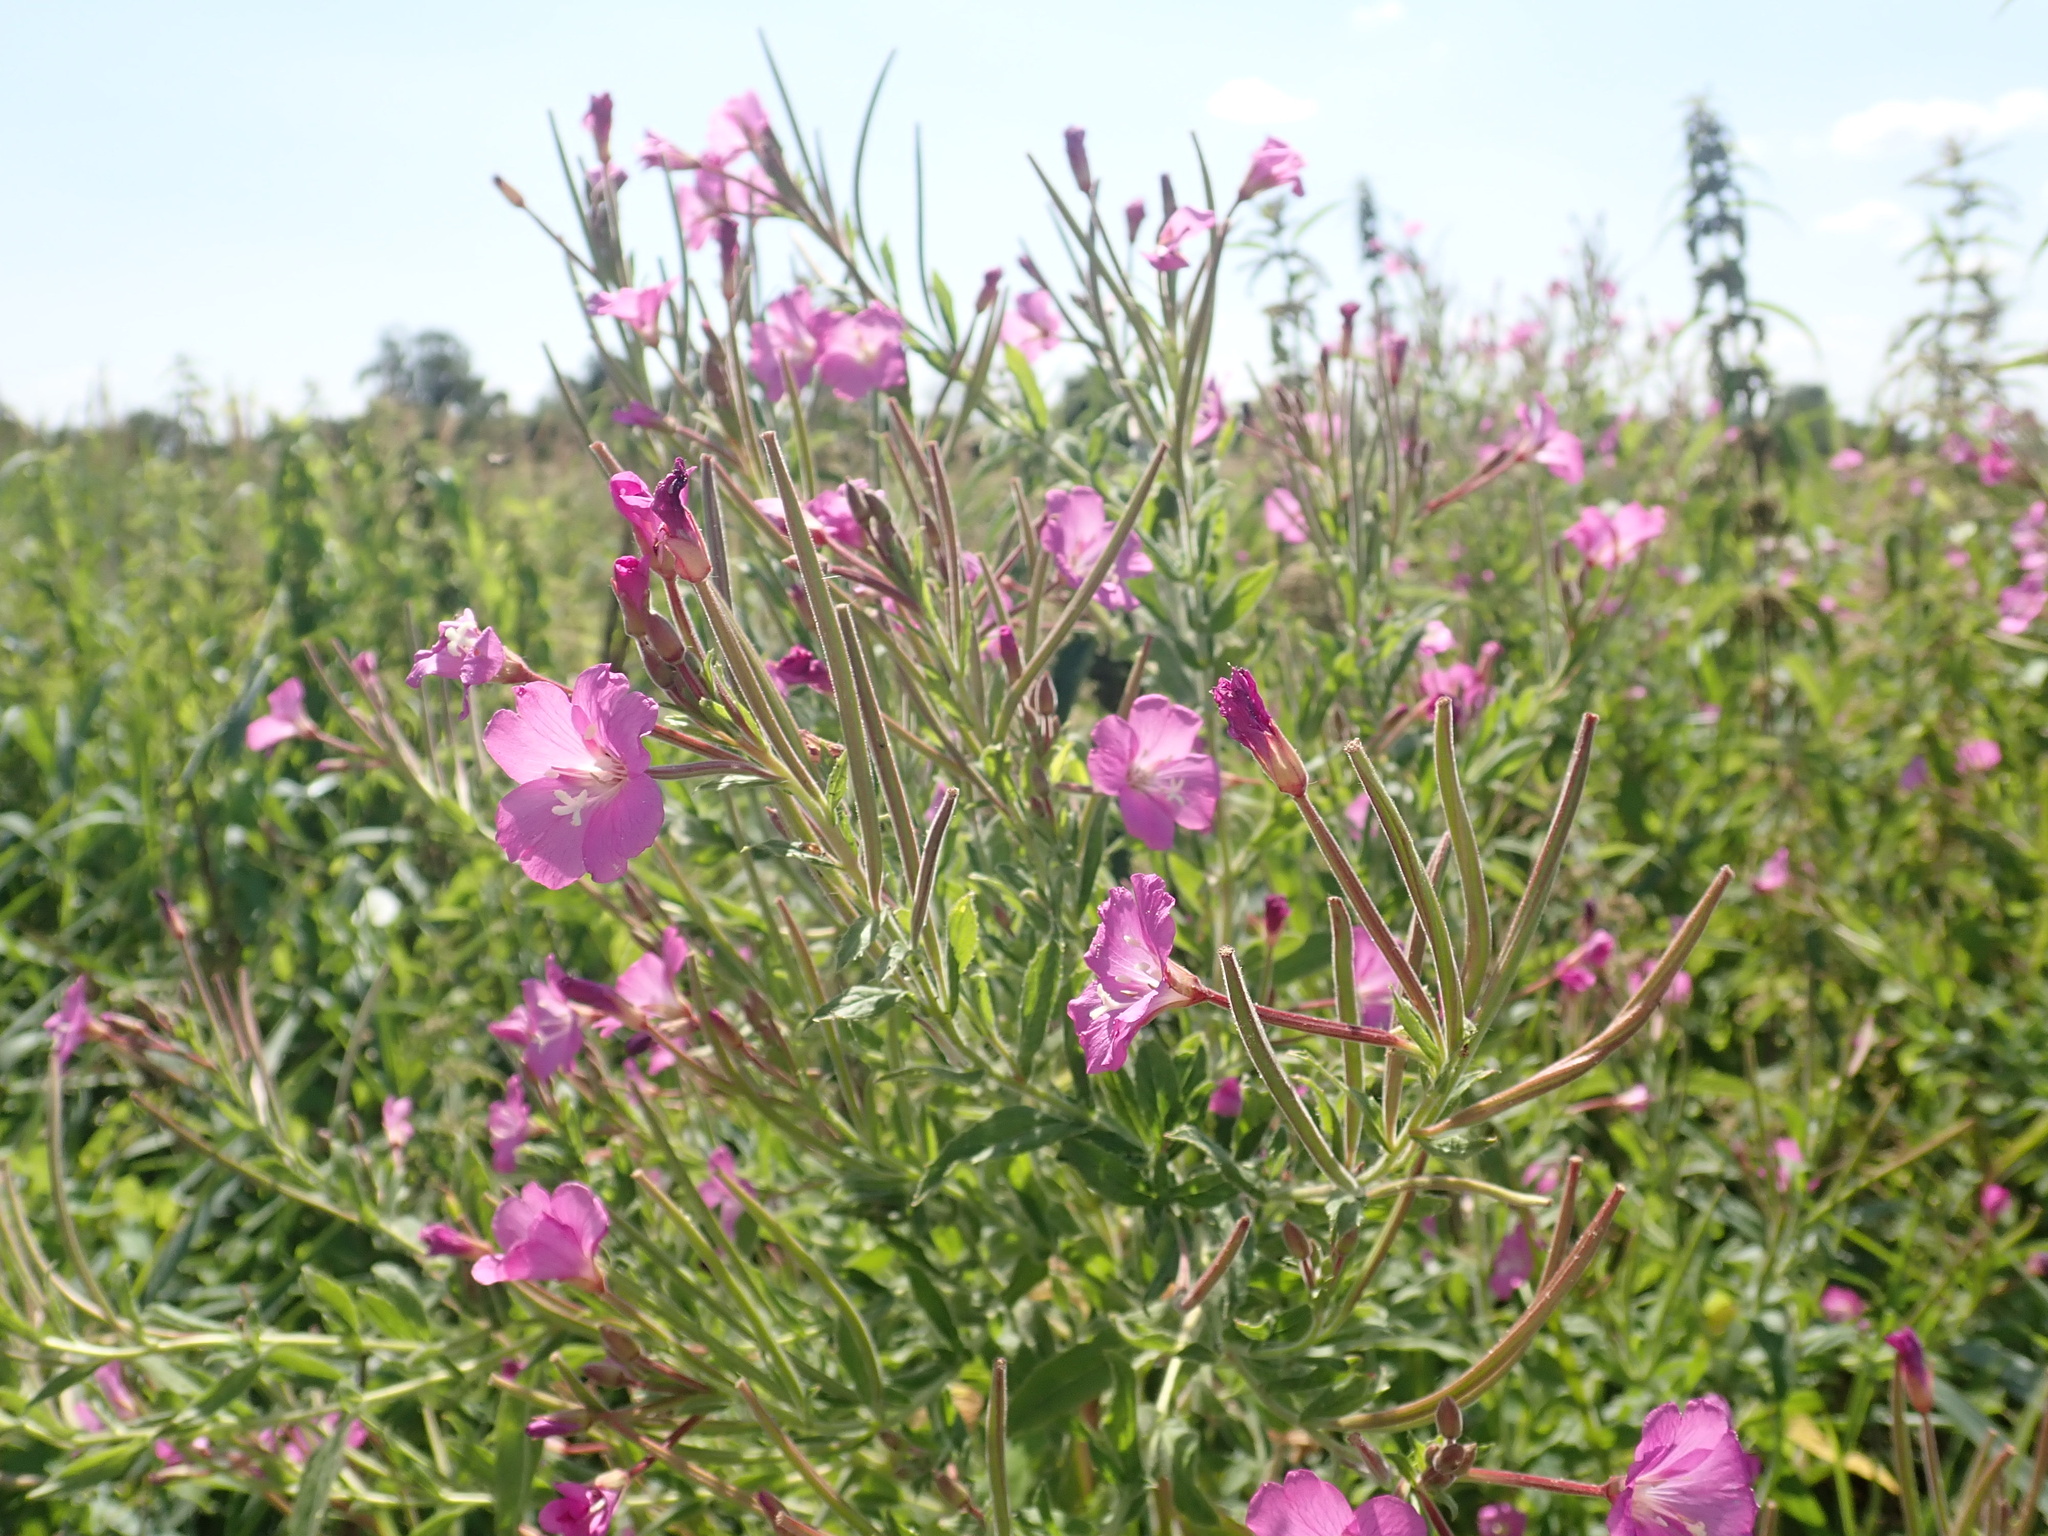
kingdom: Plantae
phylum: Tracheophyta
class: Magnoliopsida
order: Myrtales
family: Onagraceae
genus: Epilobium
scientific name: Epilobium hirsutum
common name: Great willowherb
